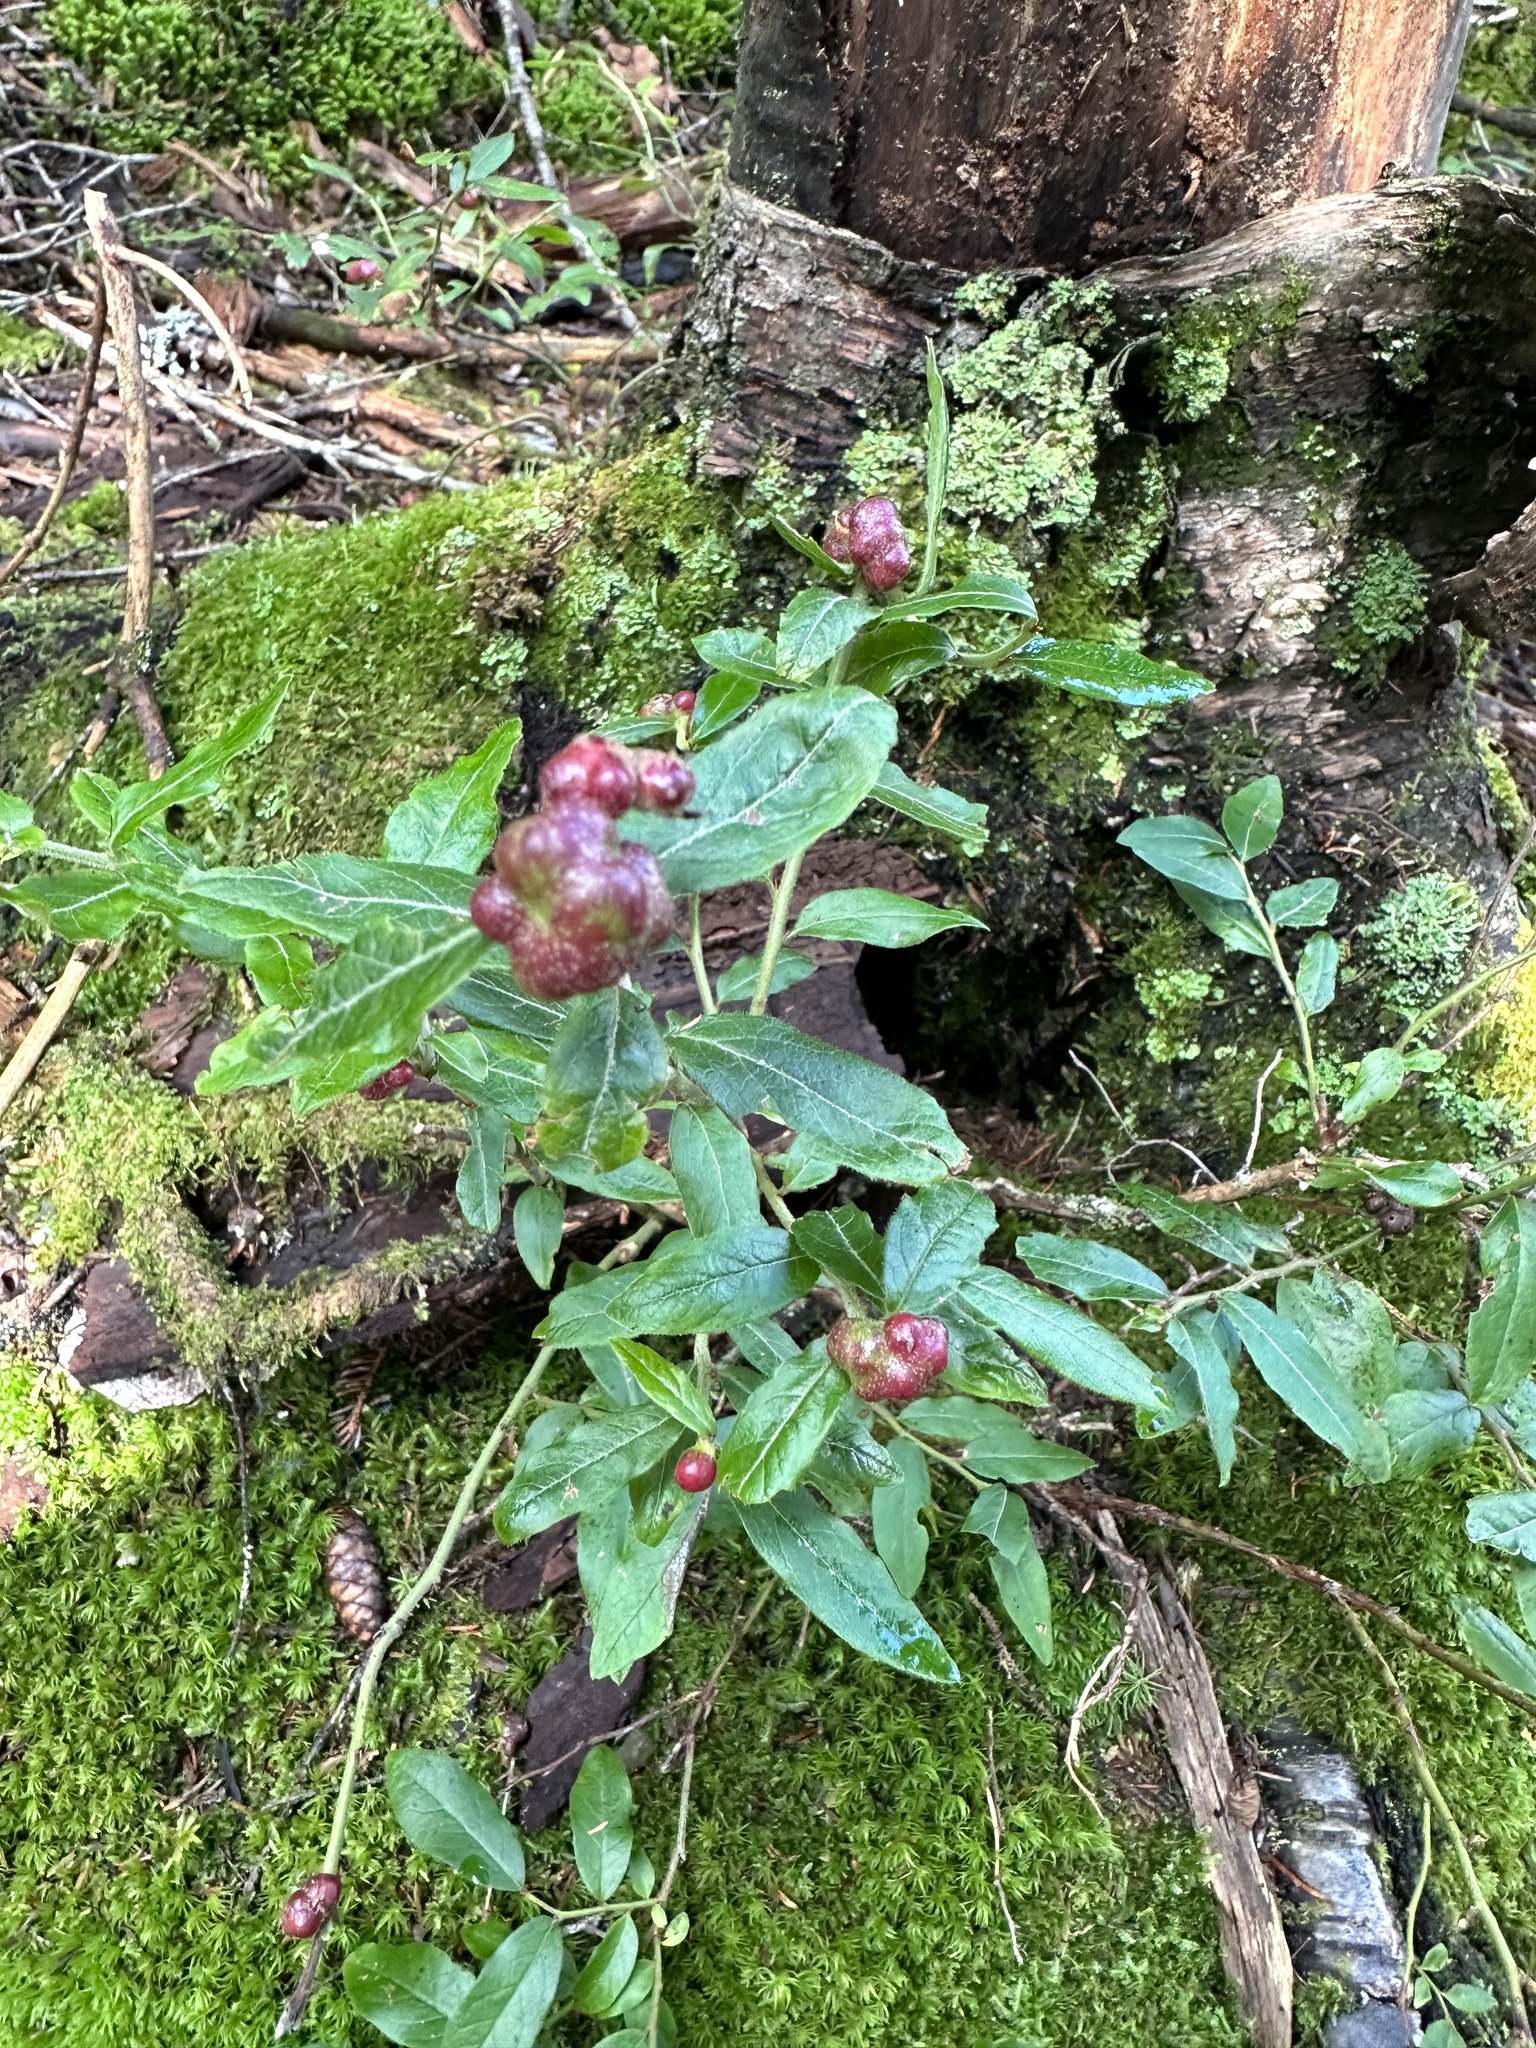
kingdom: Animalia
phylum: Arthropoda
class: Insecta
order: Hymenoptera
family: Pteromalidae
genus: Hemadas
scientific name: Hemadas nubilipennis
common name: Blueberry stem gall wasp
